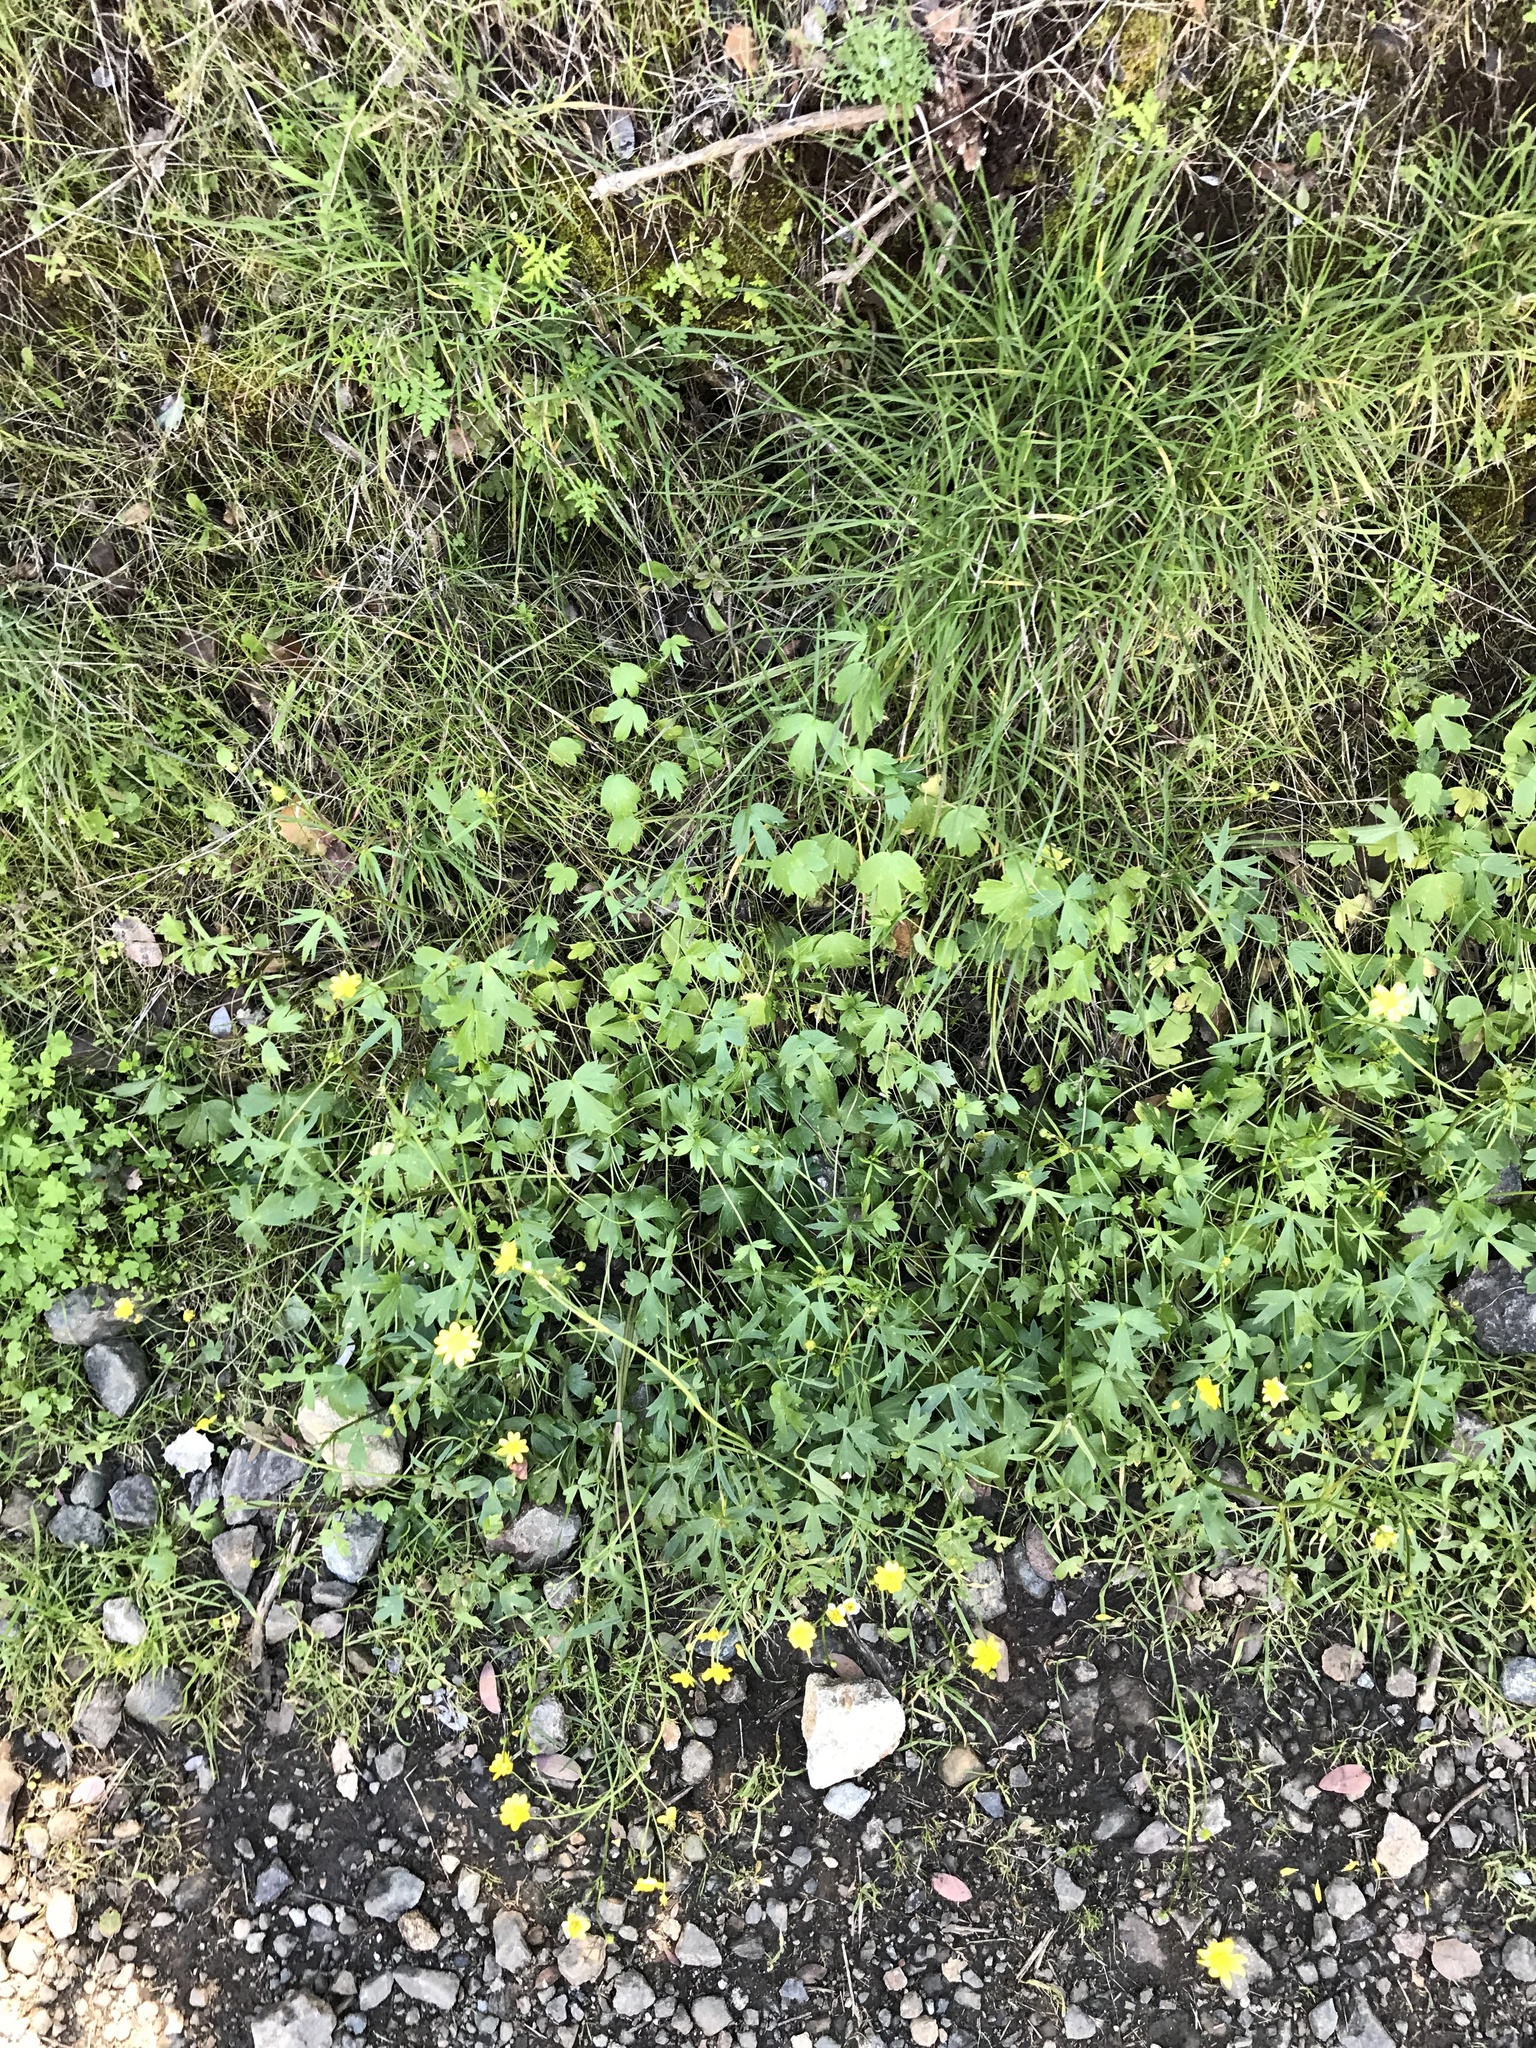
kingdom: Plantae
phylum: Tracheophyta
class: Magnoliopsida
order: Ranunculales
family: Ranunculaceae
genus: Ranunculus
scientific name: Ranunculus californicus
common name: California buttercup
